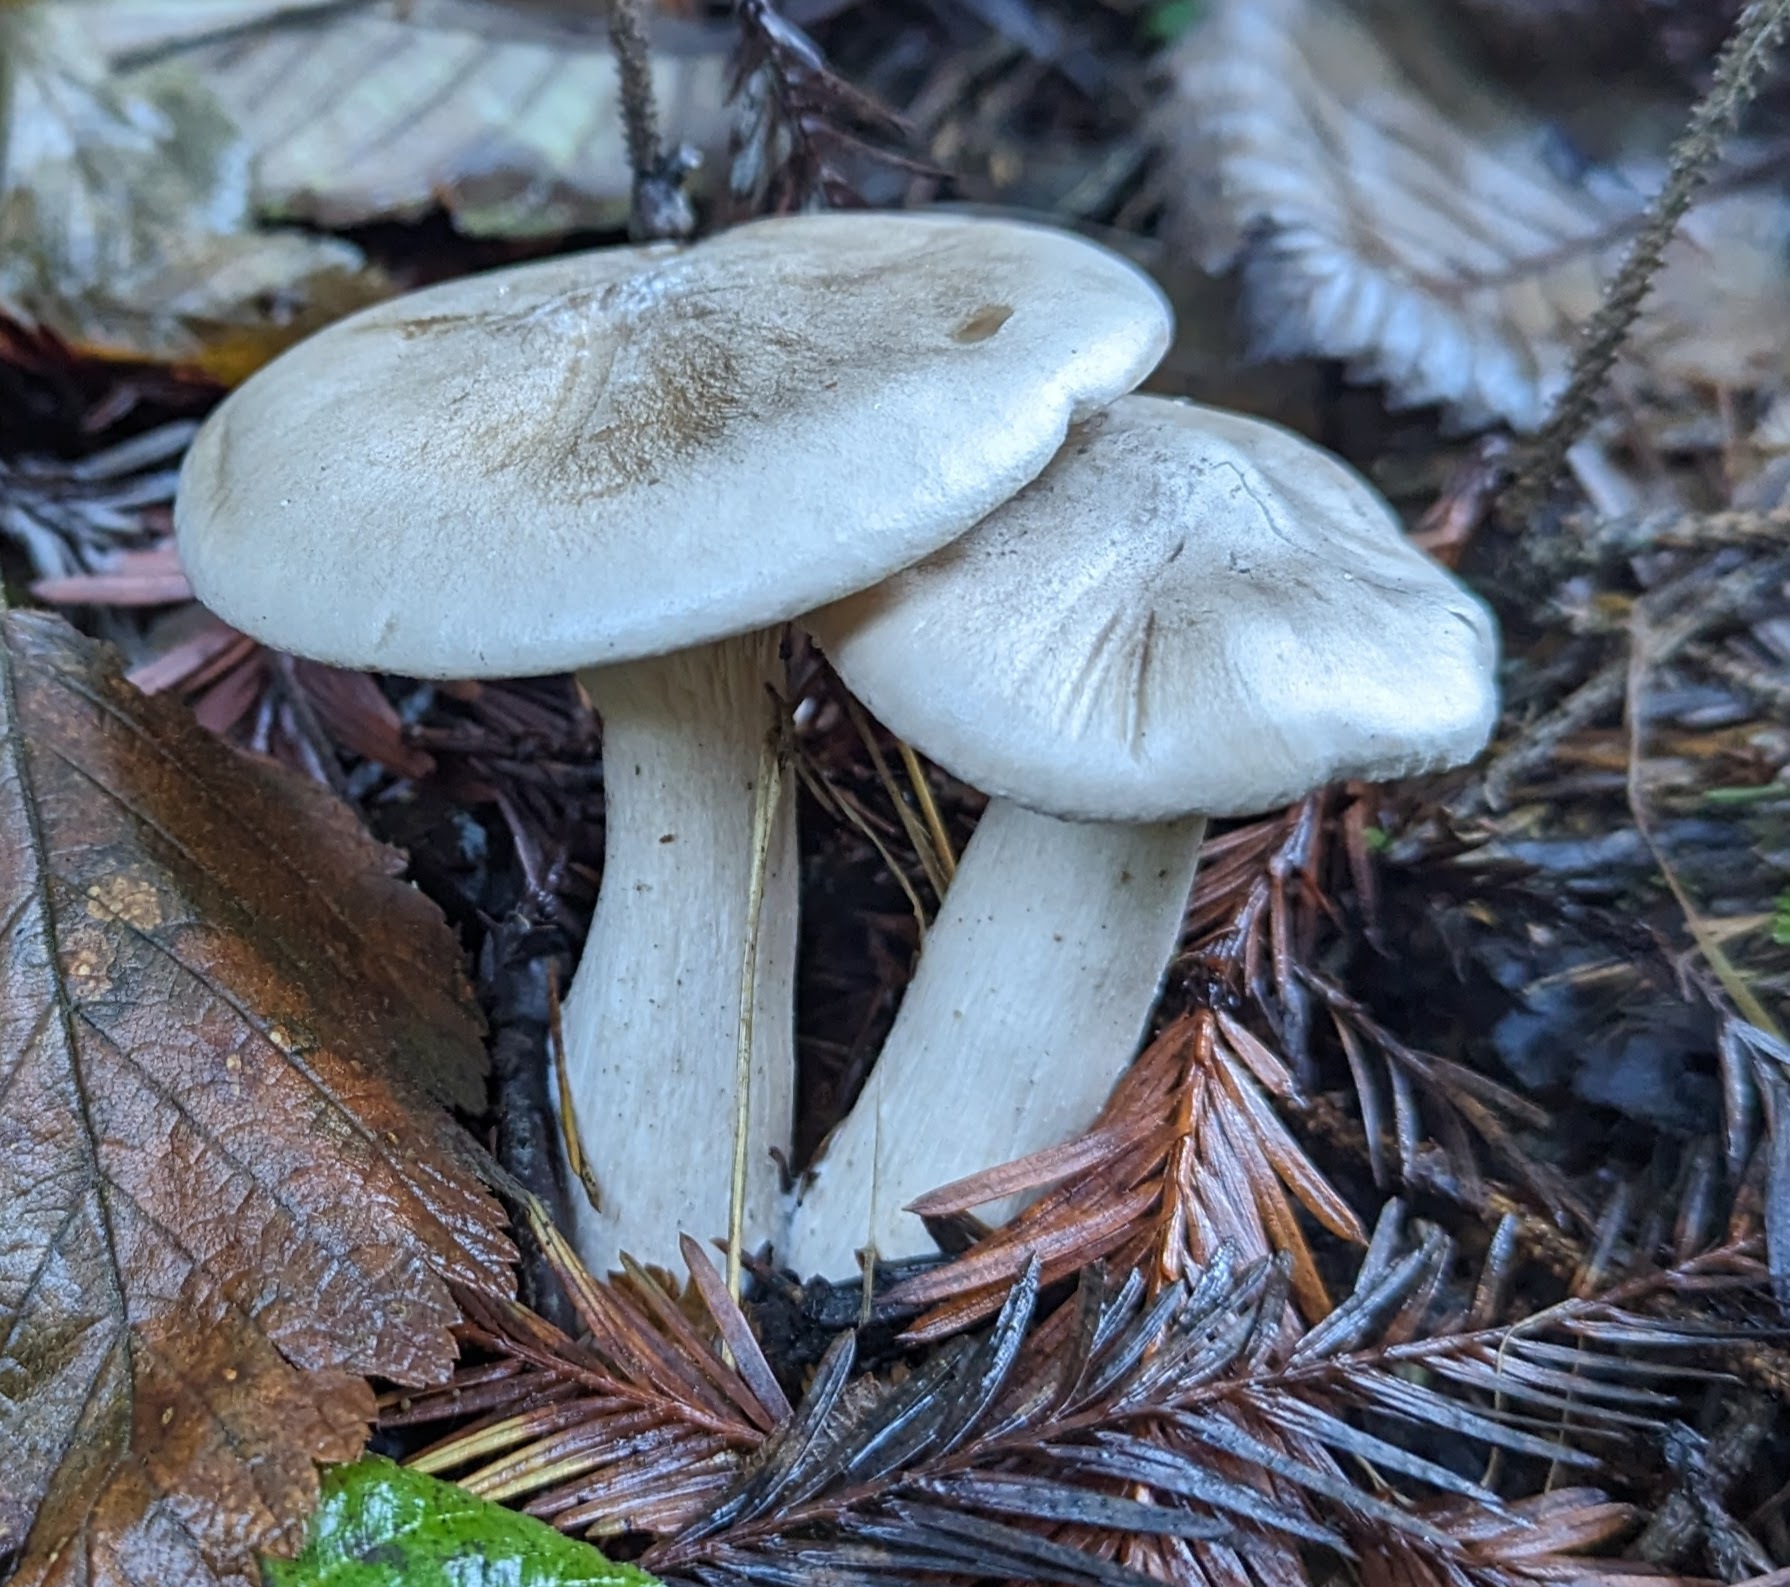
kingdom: Fungi
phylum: Basidiomycota
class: Agaricomycetes
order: Agaricales
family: Tricholomataceae
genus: Clitocybe
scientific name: Clitocybe nebularis
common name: Clouded agaric
